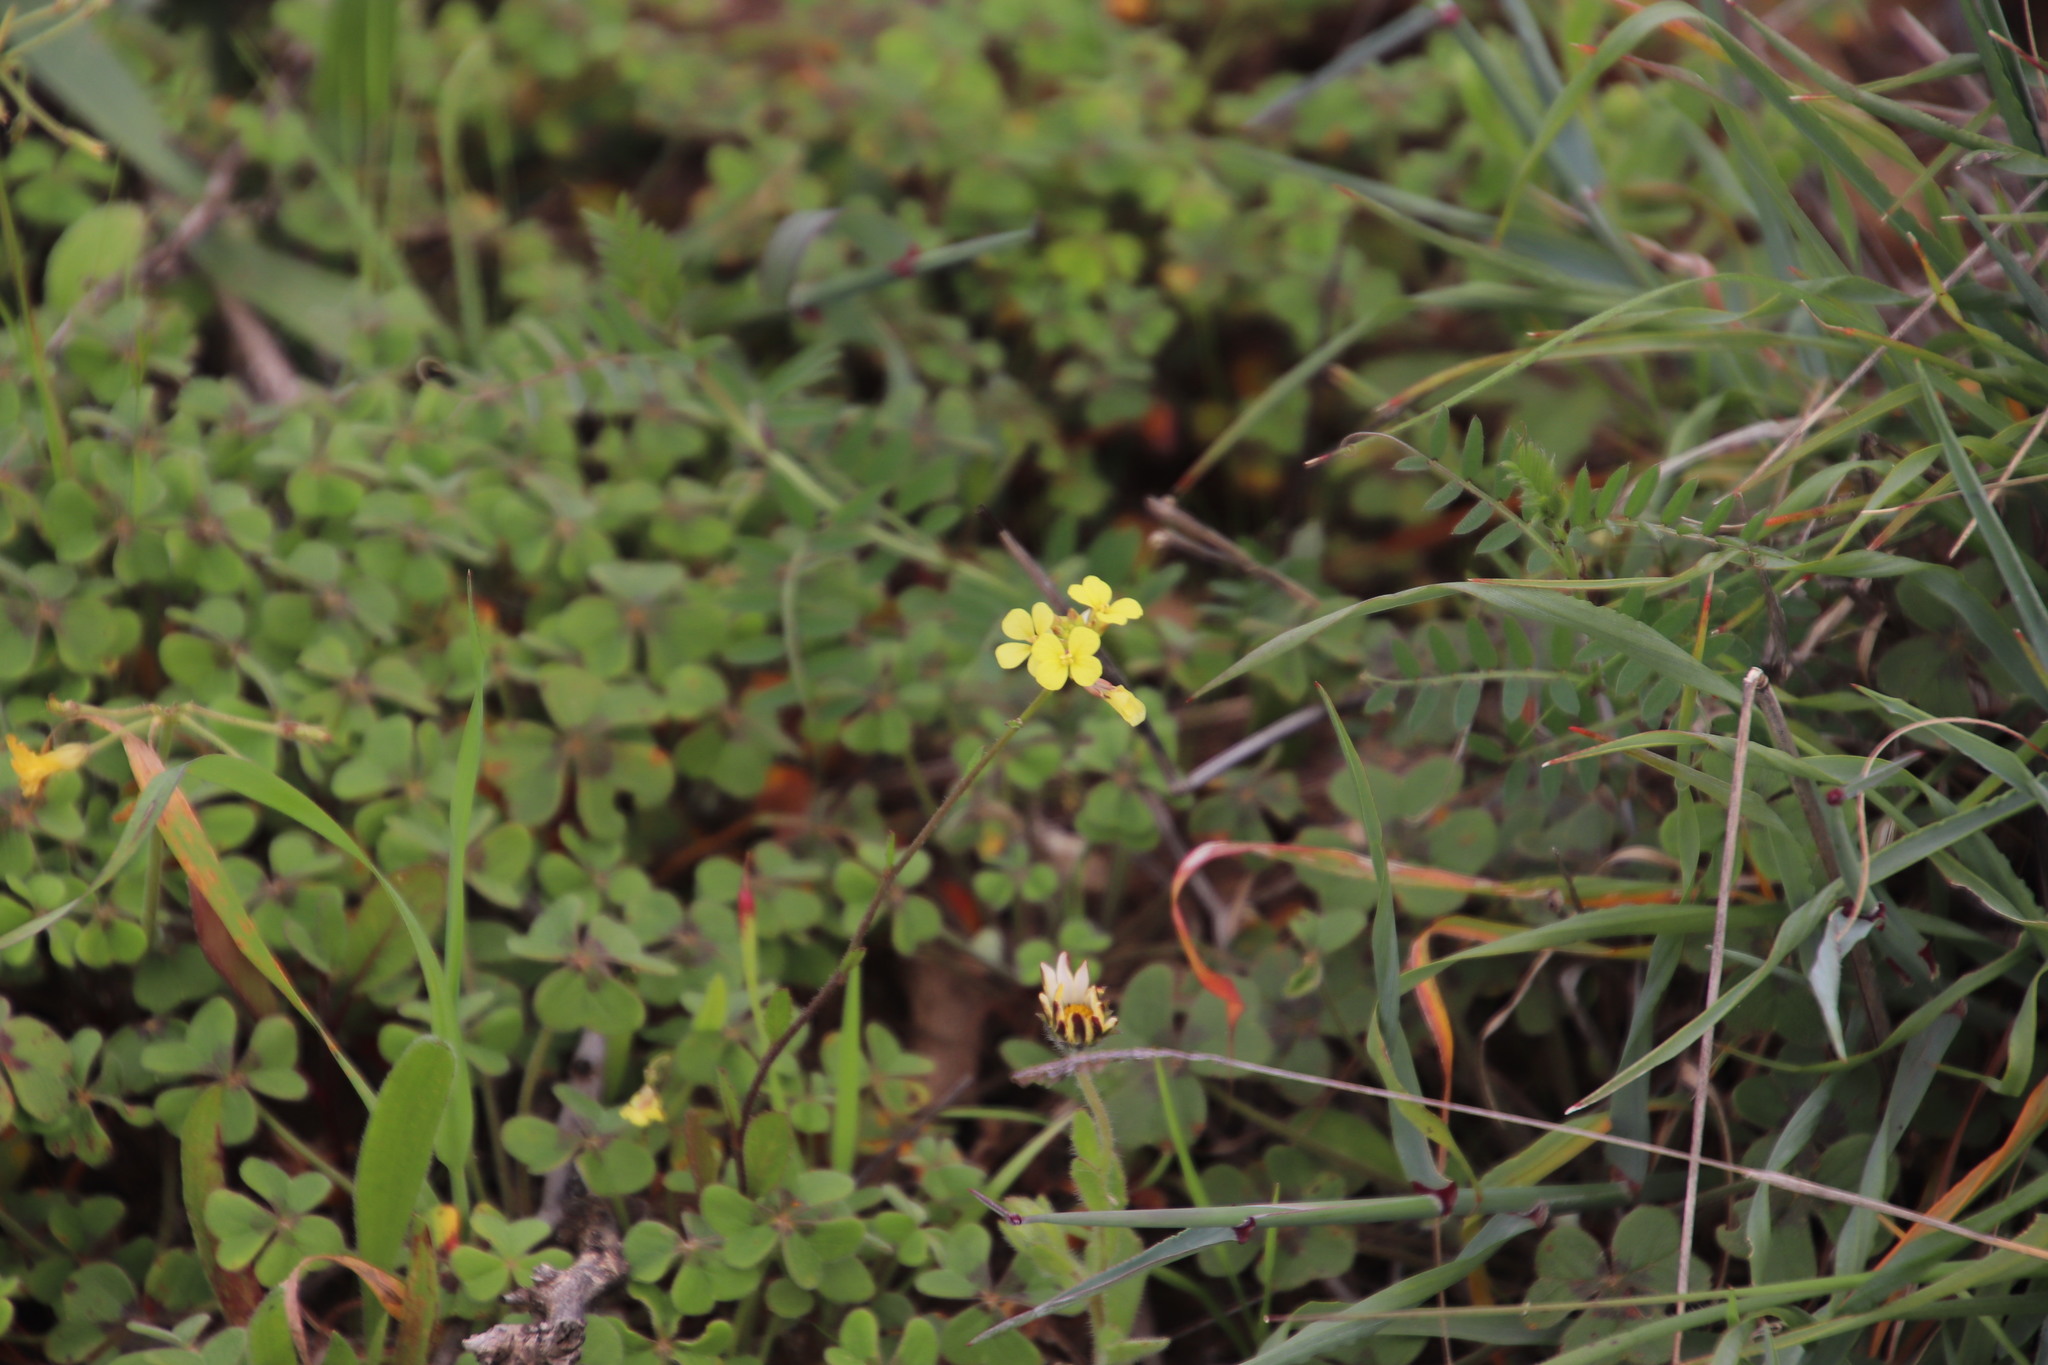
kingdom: Plantae
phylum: Tracheophyta
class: Magnoliopsida
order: Oxalidales
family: Oxalidaceae
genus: Oxalis
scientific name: Oxalis pes-caprae
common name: Bermuda-buttercup
